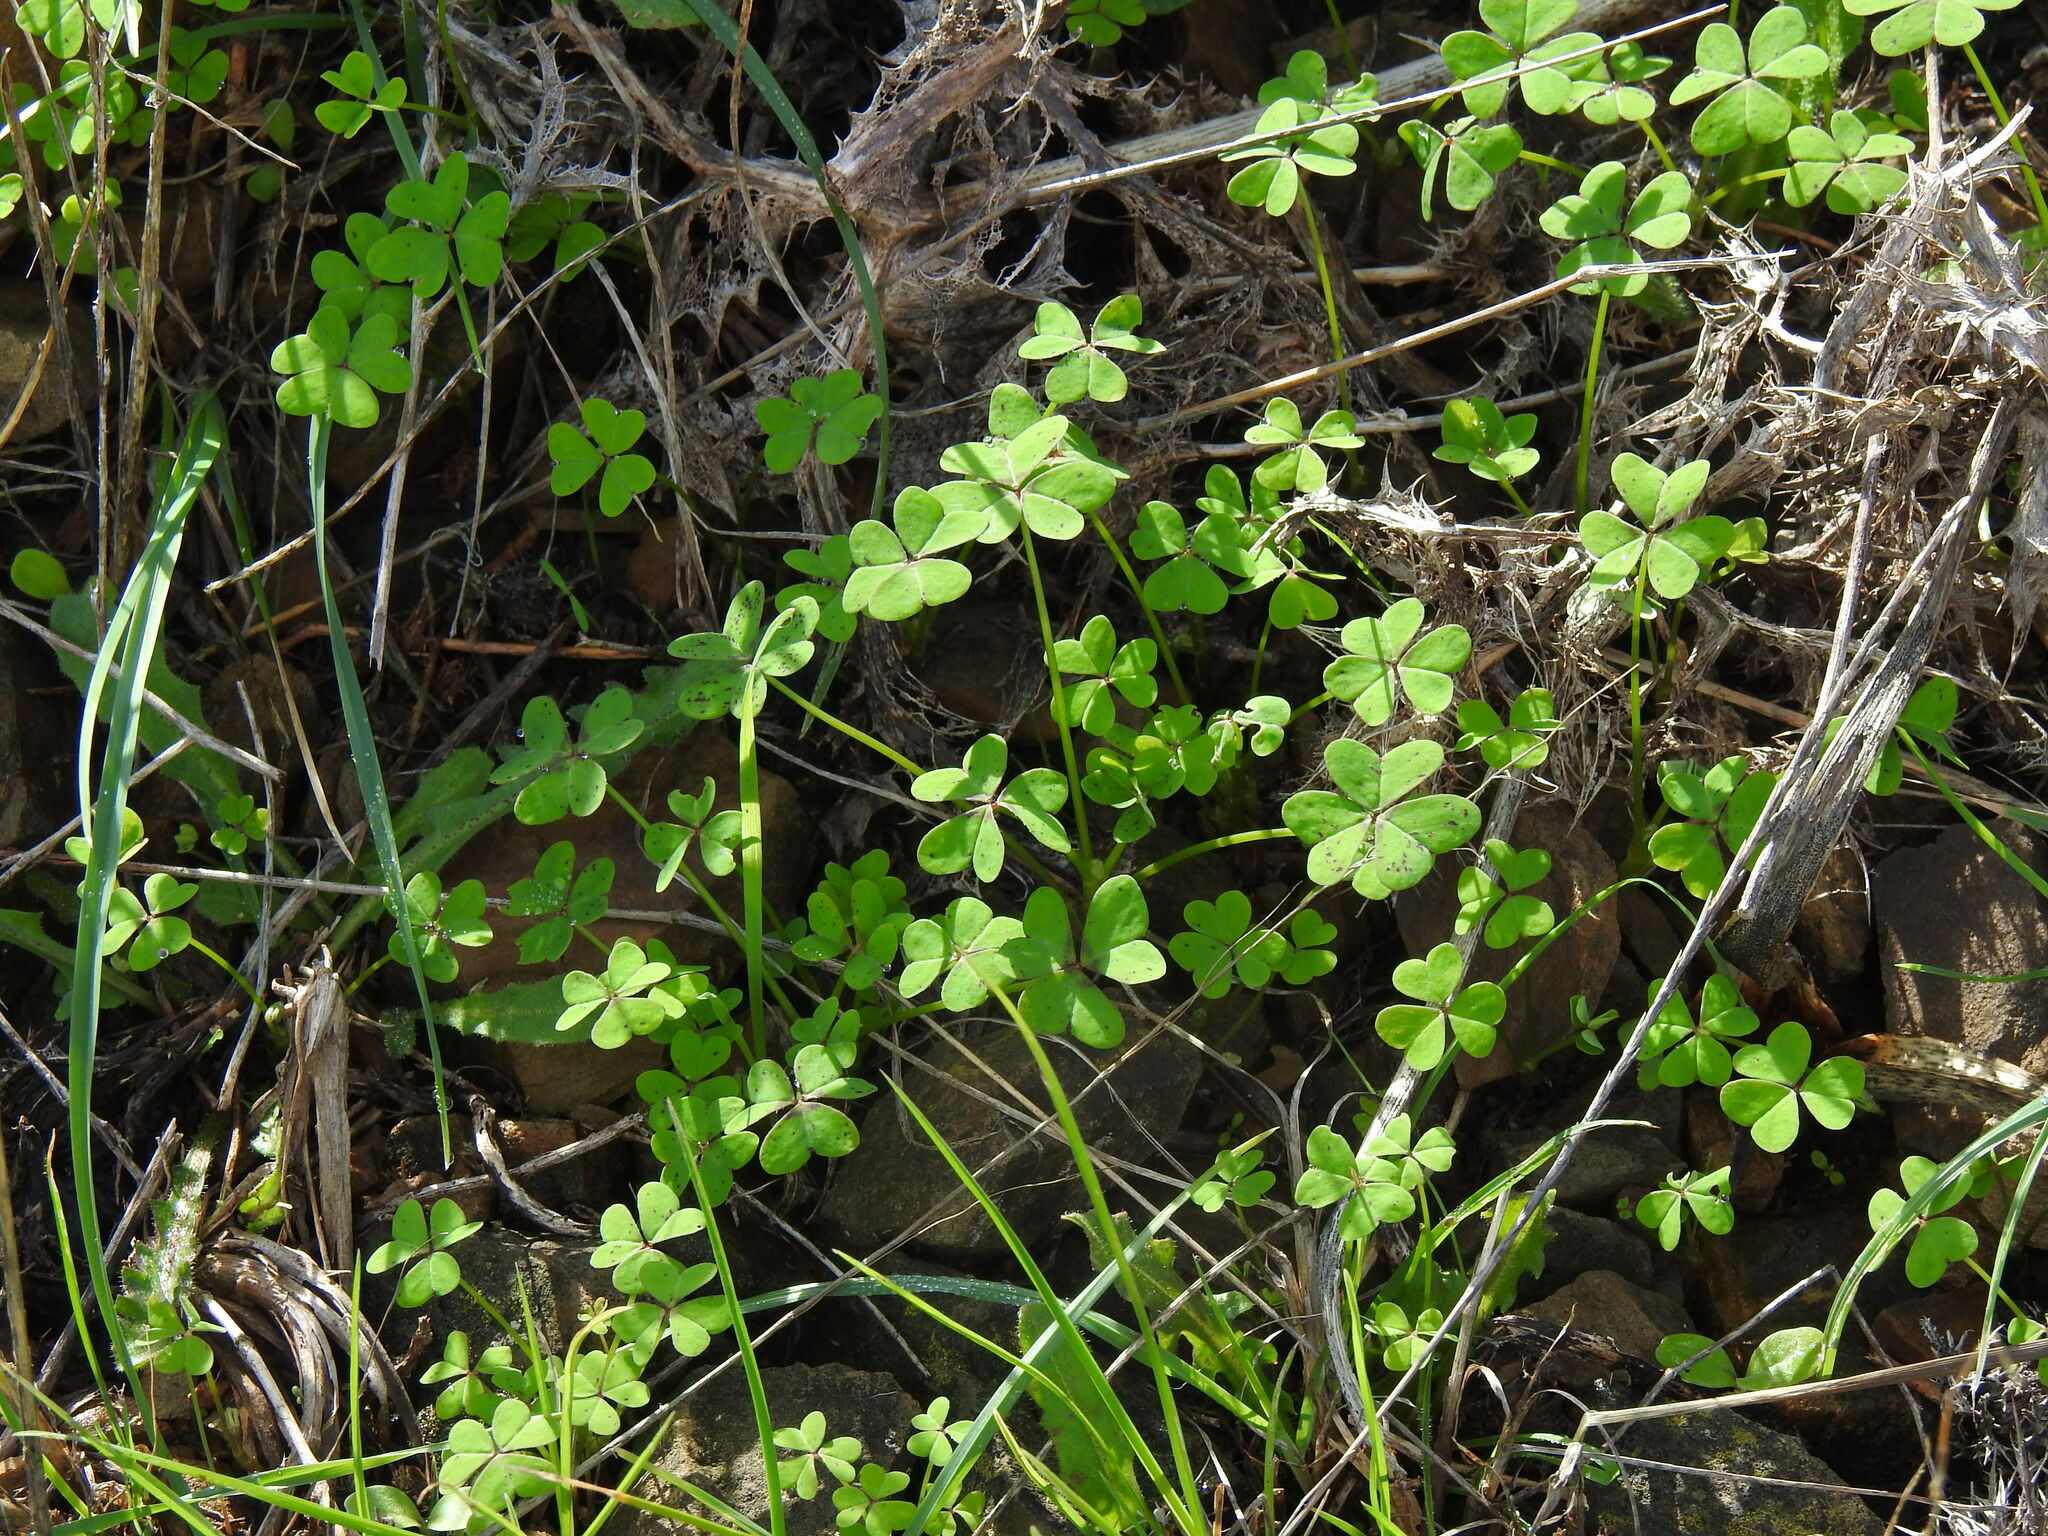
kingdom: Plantae
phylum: Tracheophyta
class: Magnoliopsida
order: Oxalidales
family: Oxalidaceae
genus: Oxalis
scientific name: Oxalis pes-caprae
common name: Bermuda-buttercup
